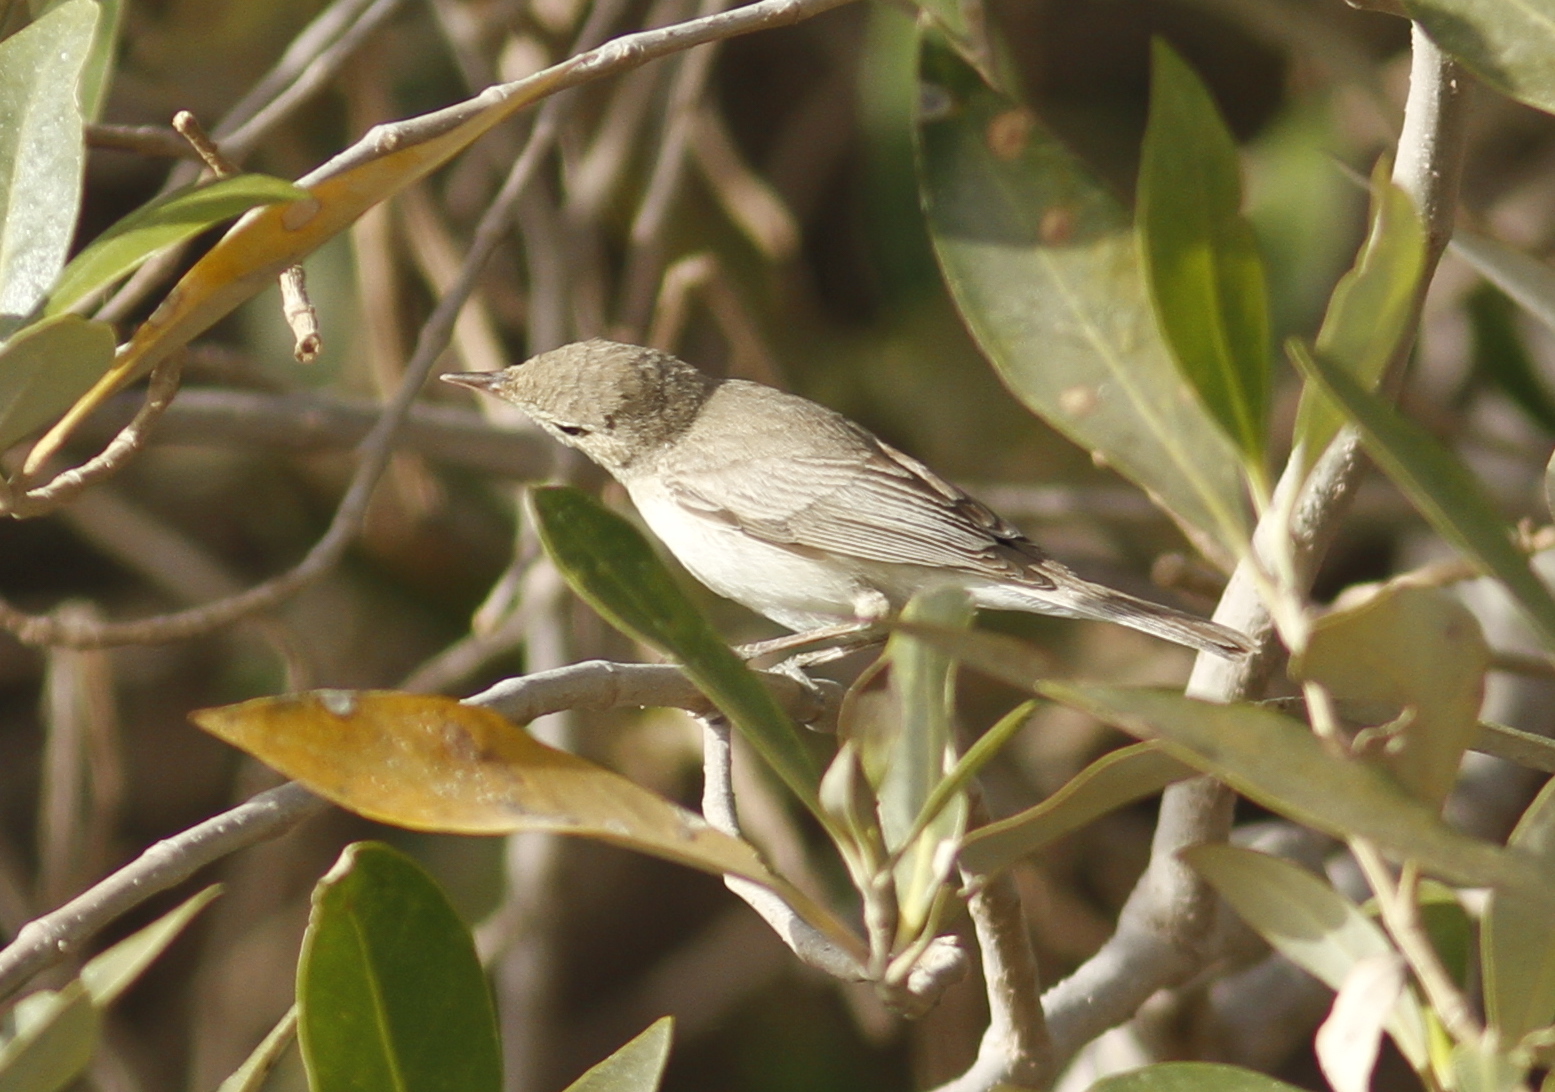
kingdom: Animalia
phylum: Chordata
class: Aves
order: Passeriformes
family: Acrocephalidae
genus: Iduna
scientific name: Iduna pallida
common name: Eastern olivaceous warbler
